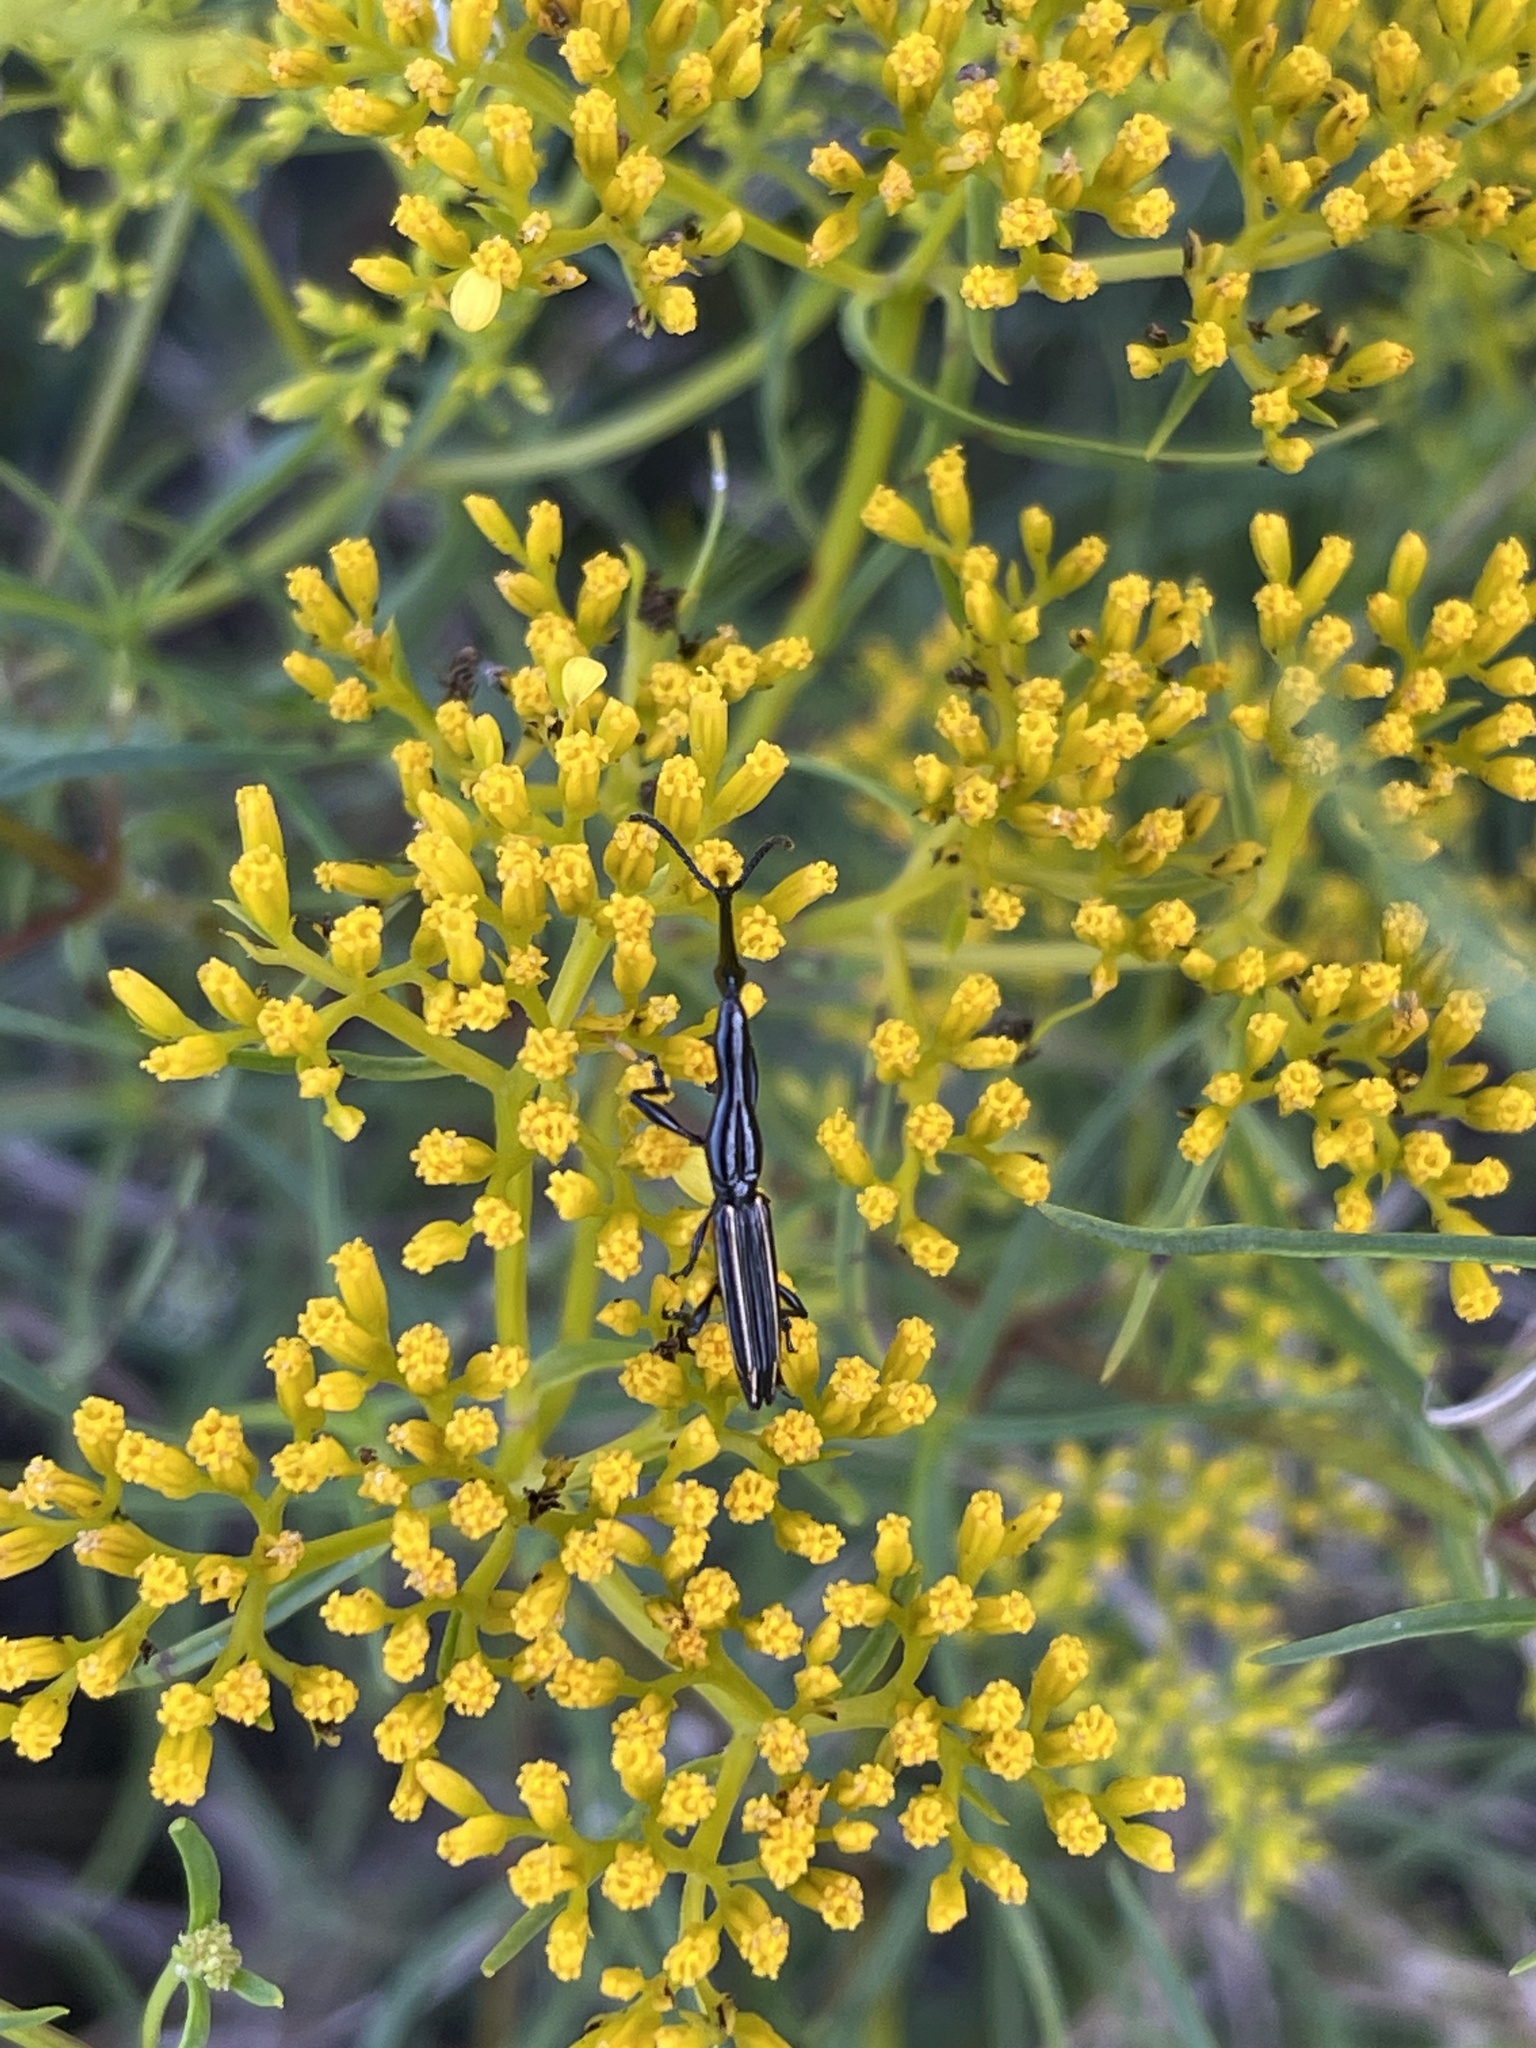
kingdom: Animalia
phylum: Arthropoda
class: Insecta
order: Coleoptera
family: Brentidae
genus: Brentus
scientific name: Brentus anchorago
